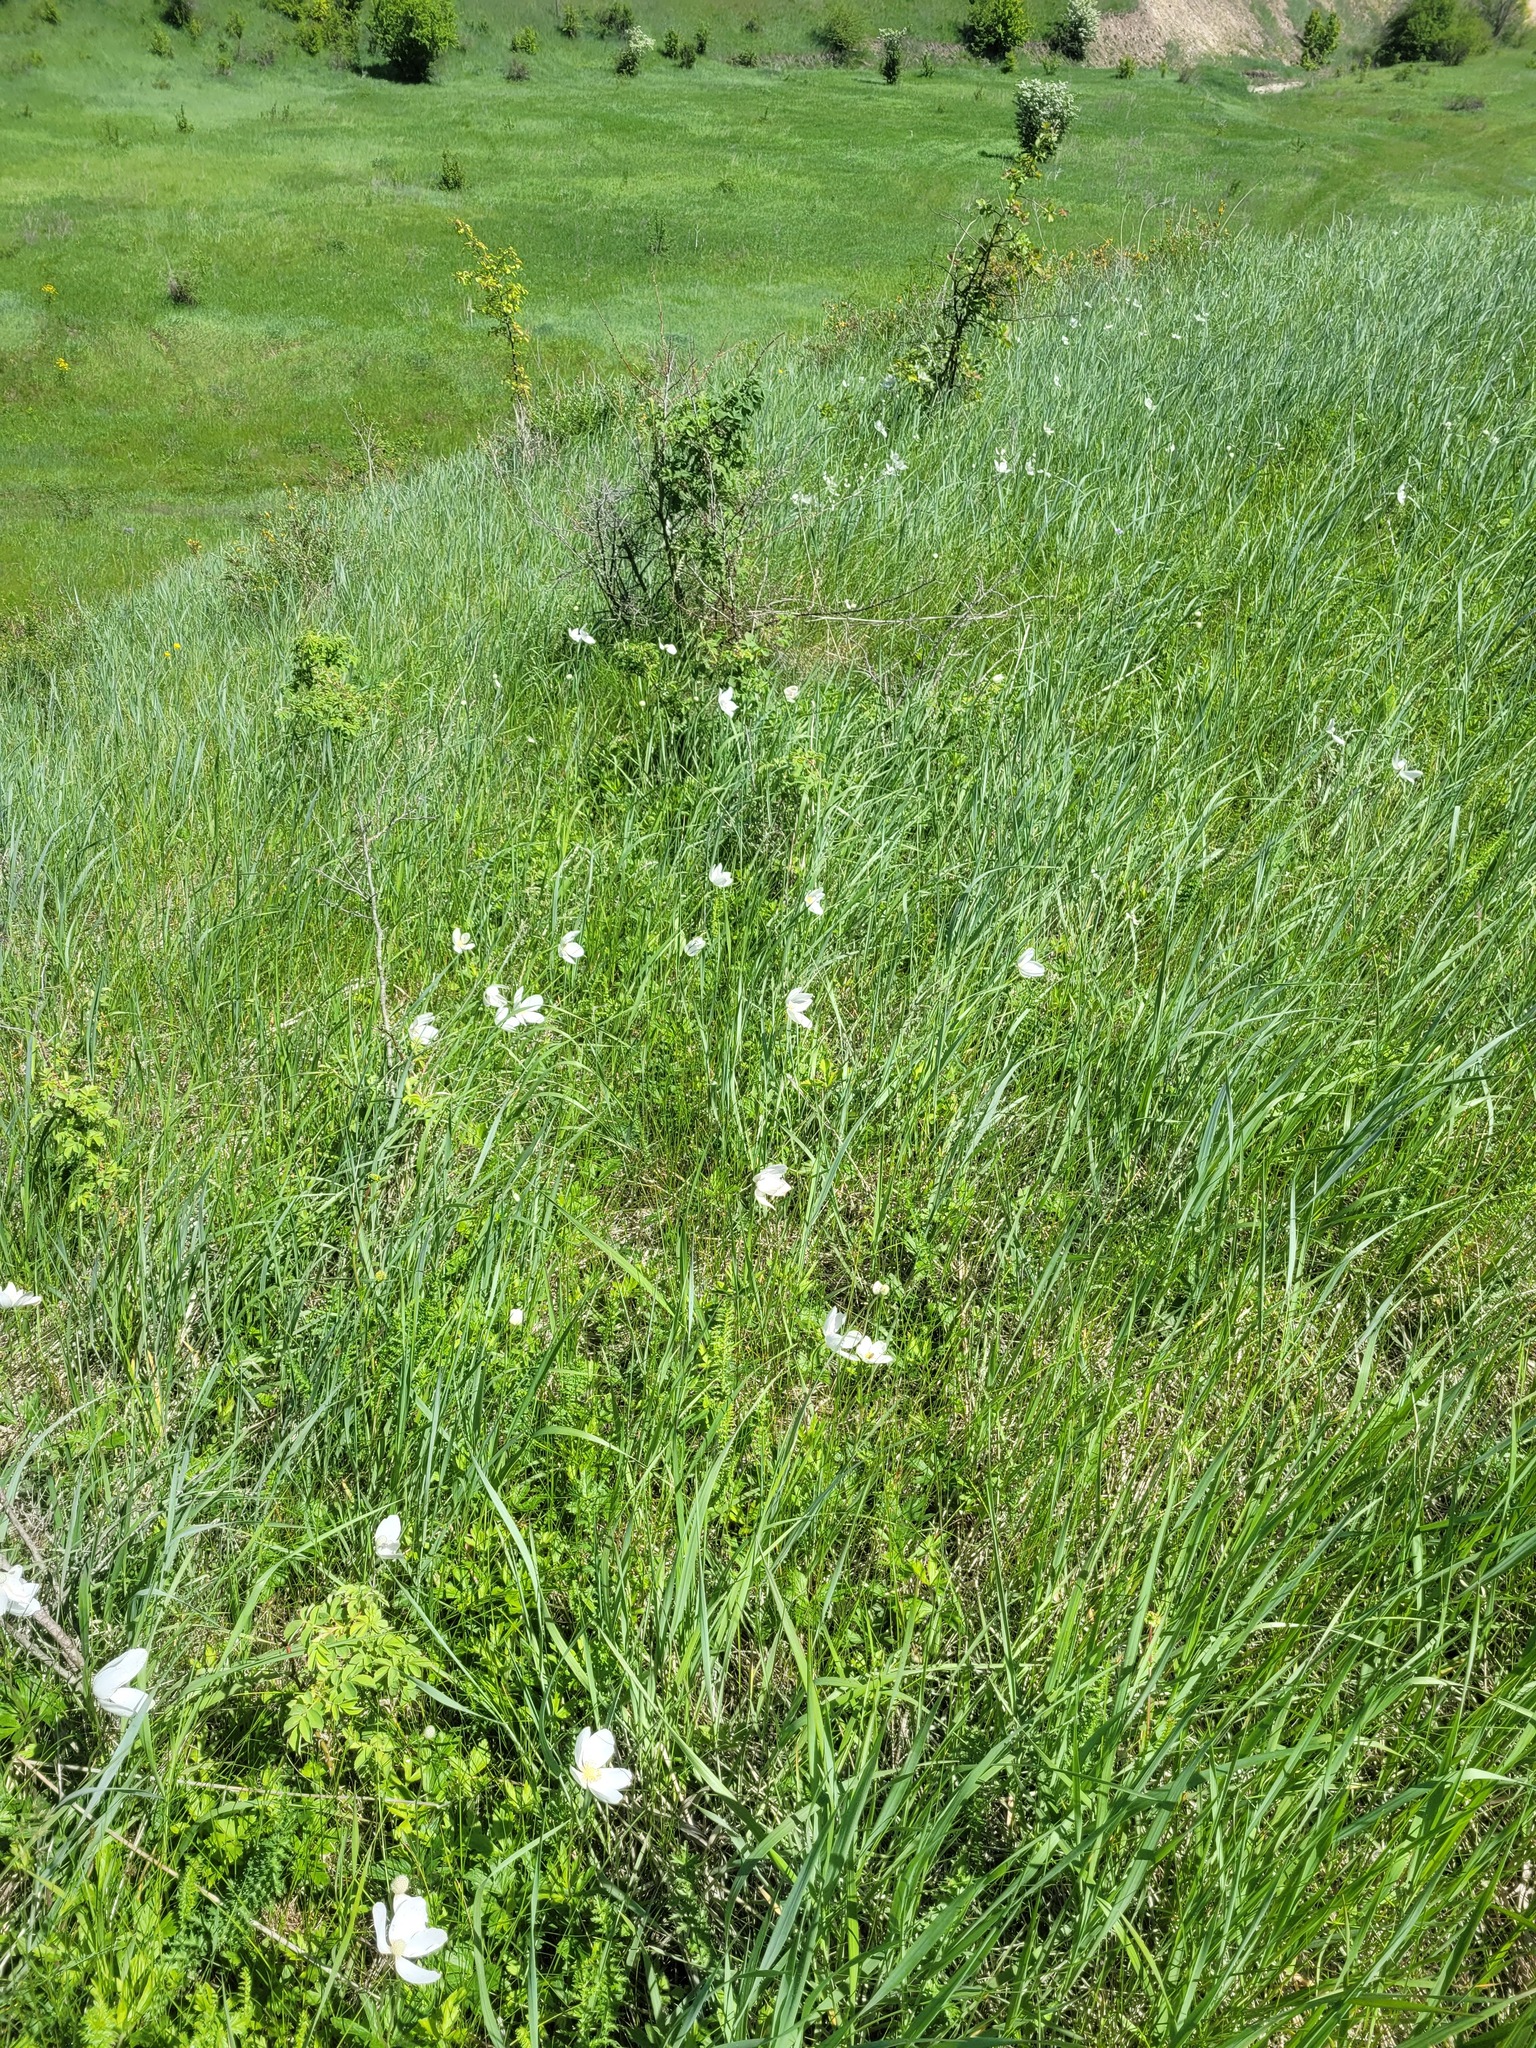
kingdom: Plantae
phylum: Tracheophyta
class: Magnoliopsida
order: Ranunculales
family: Ranunculaceae
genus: Anemone
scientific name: Anemone sylvestris
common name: Snowdrop anemone
